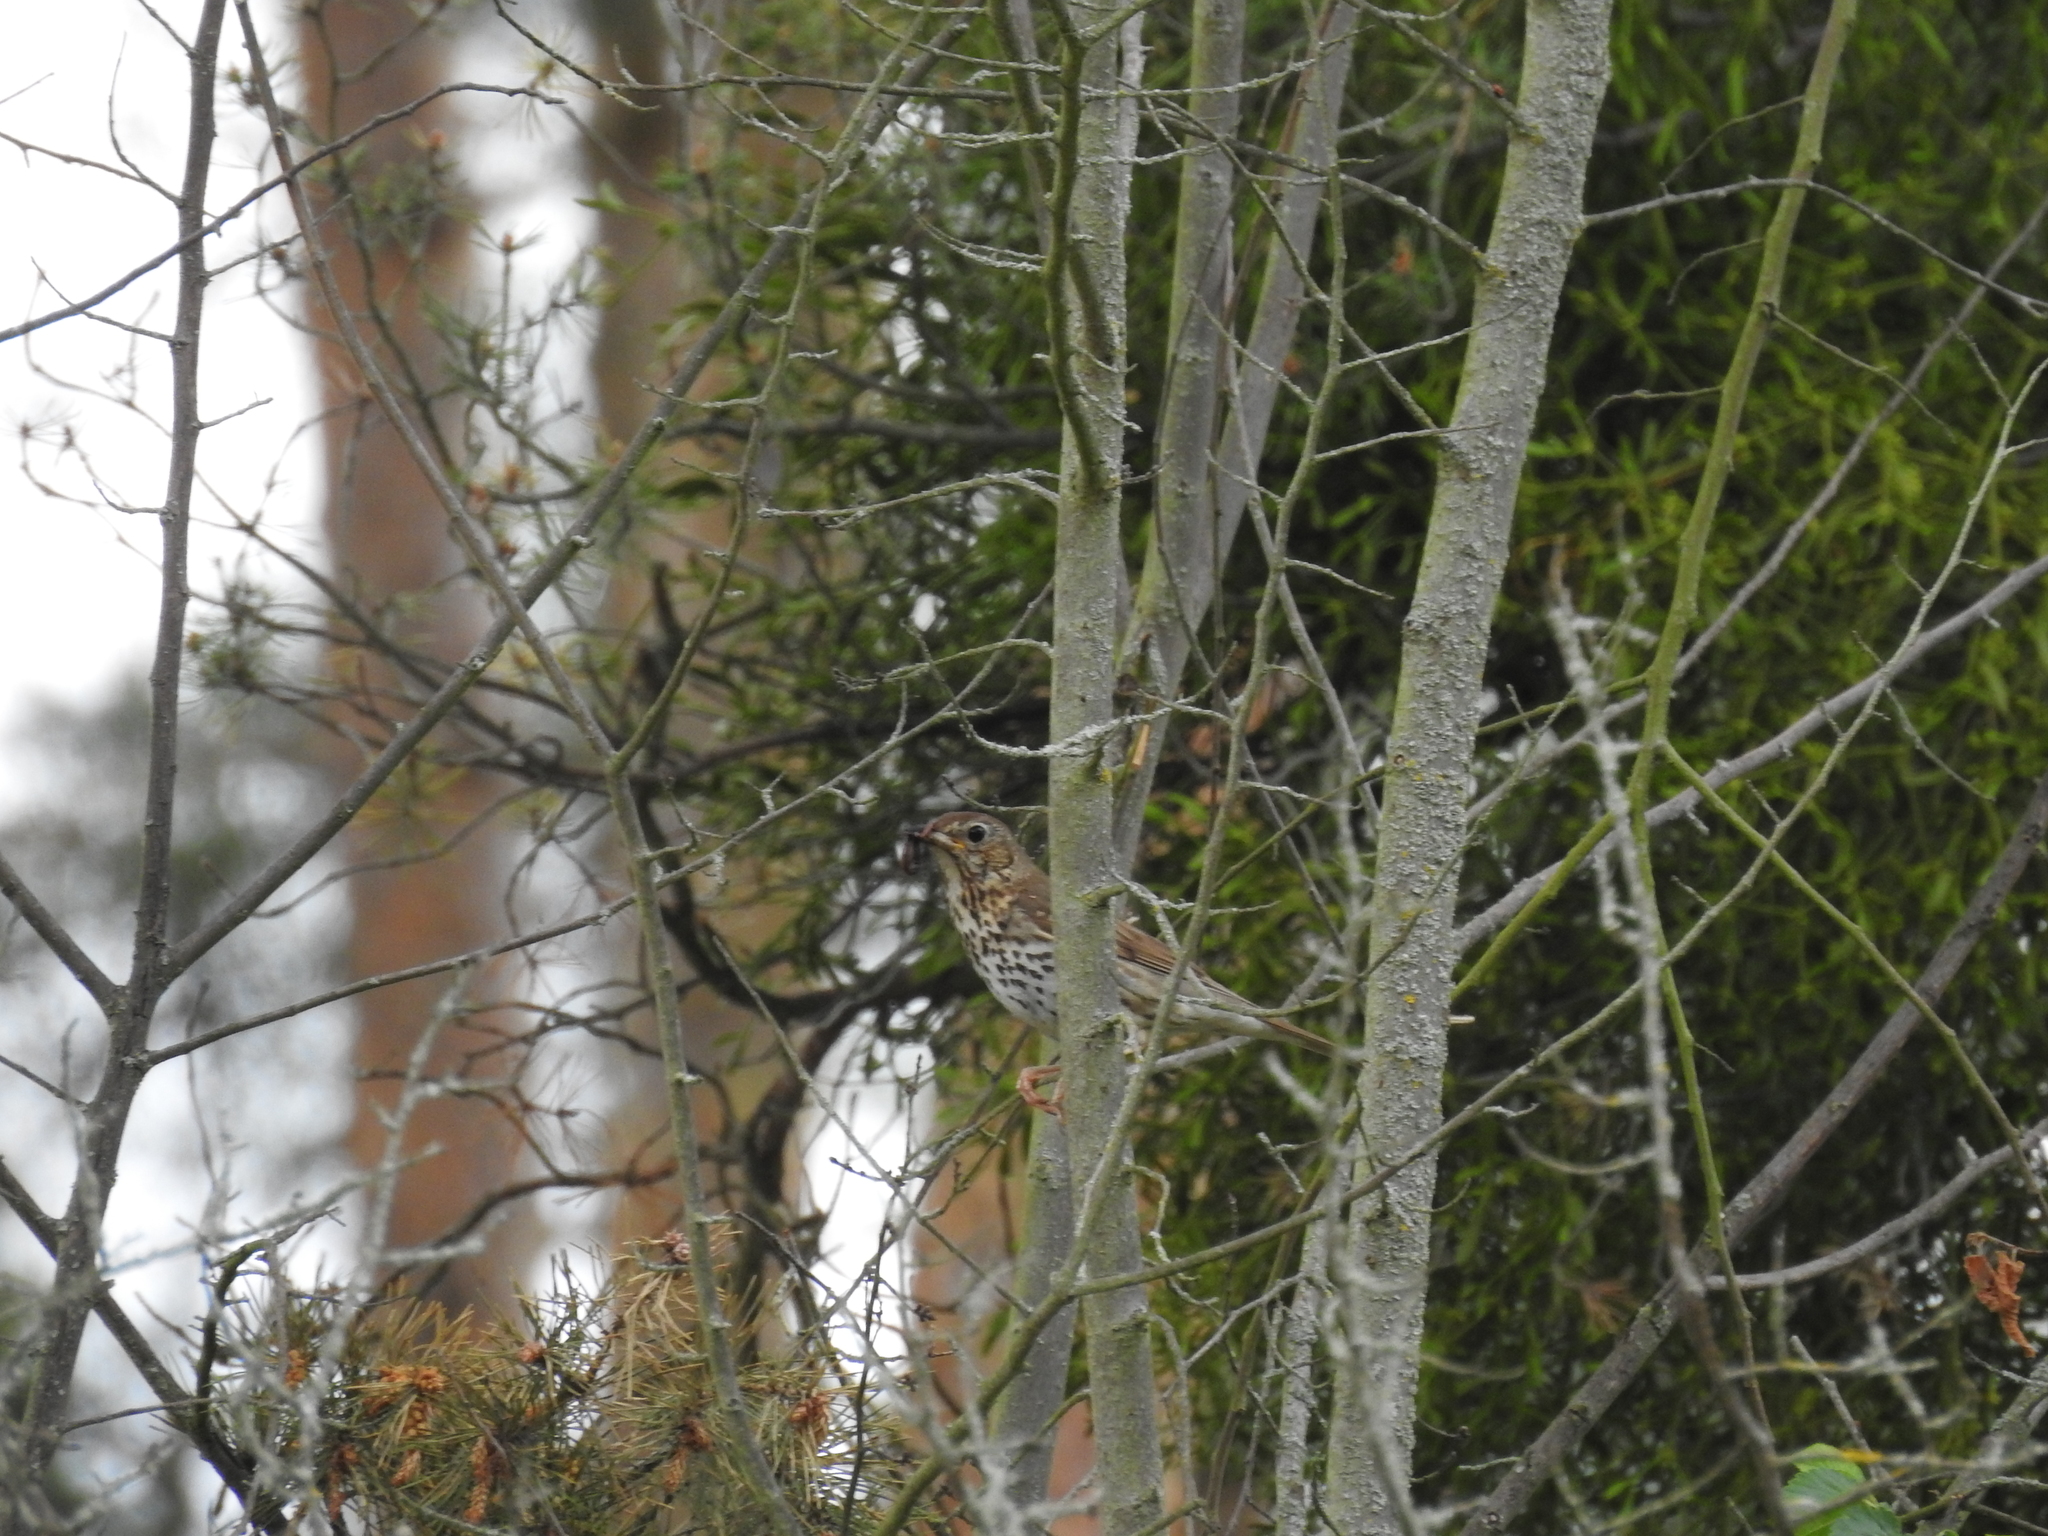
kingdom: Animalia
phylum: Chordata
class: Aves
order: Passeriformes
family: Turdidae
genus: Turdus
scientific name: Turdus philomelos
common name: Song thrush
